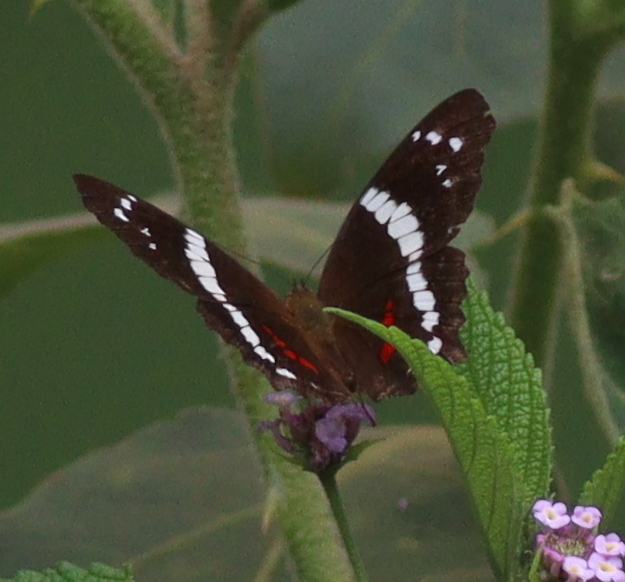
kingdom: Animalia
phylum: Arthropoda
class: Insecta
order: Lepidoptera
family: Nymphalidae
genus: Anartia
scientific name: Anartia fatima
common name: Banded peacock
